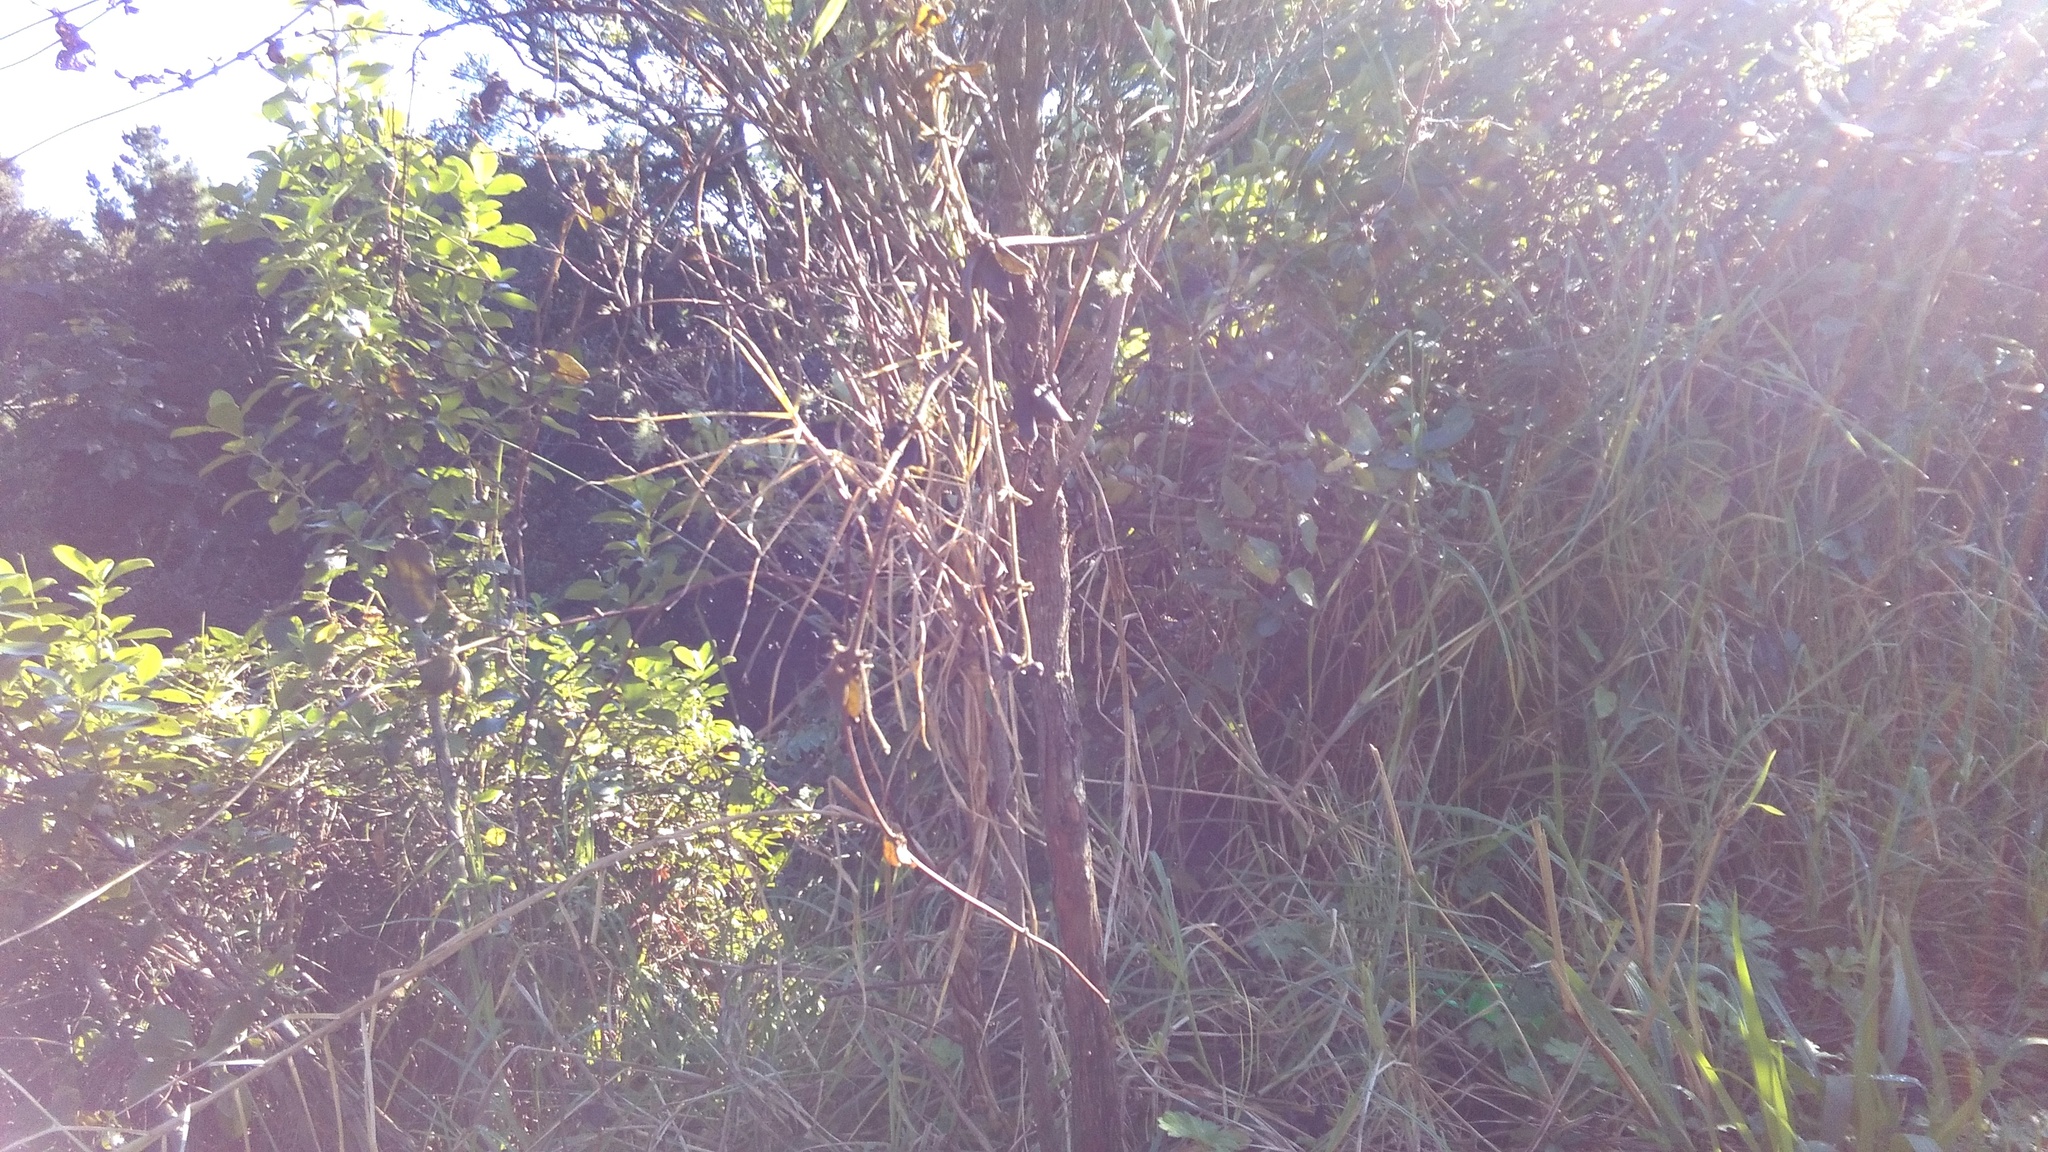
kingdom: Plantae
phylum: Tracheophyta
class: Magnoliopsida
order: Gentianales
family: Rubiaceae
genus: Coprosma
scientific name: Coprosma robusta
